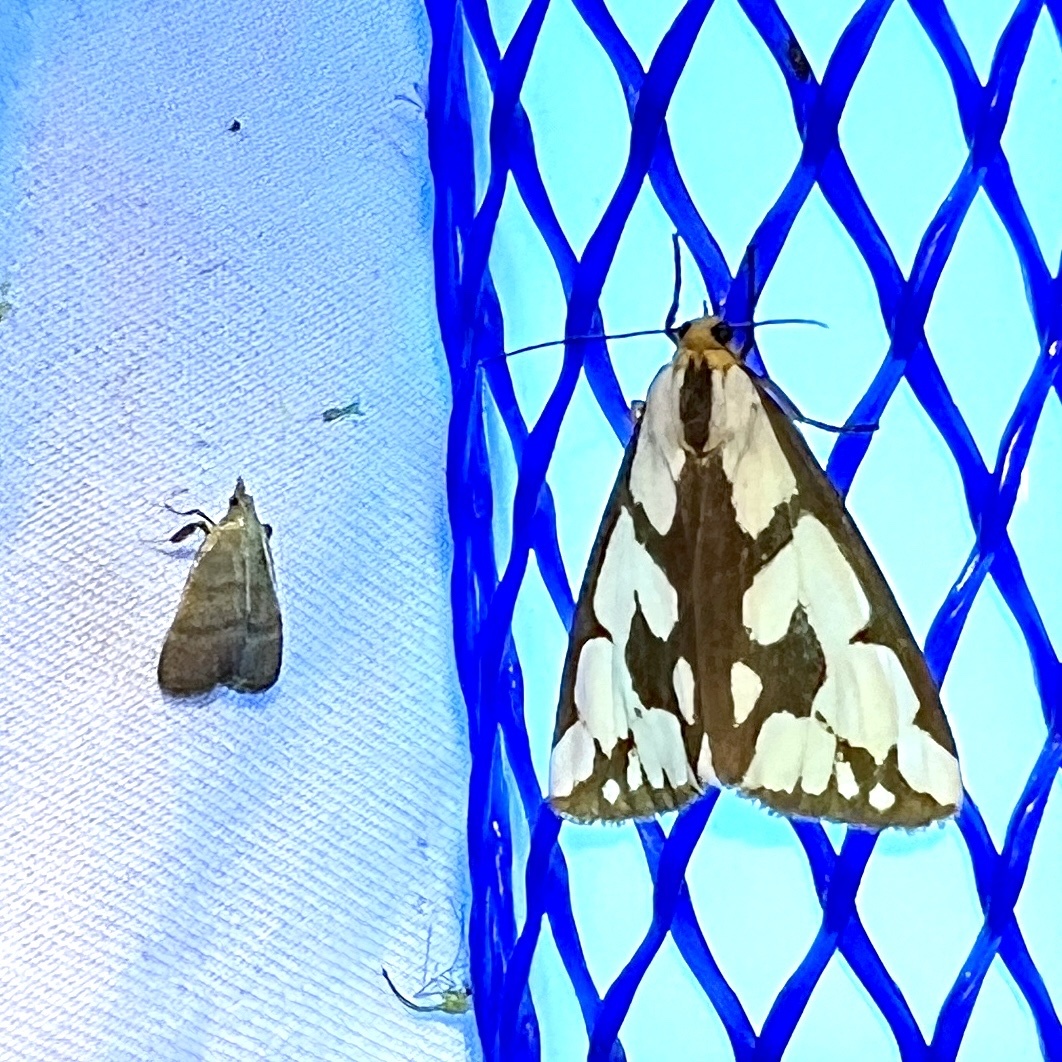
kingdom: Animalia
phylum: Arthropoda
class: Insecta
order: Lepidoptera
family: Erebidae
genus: Haploa
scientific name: Haploa confusa
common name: Confused haploa moth
